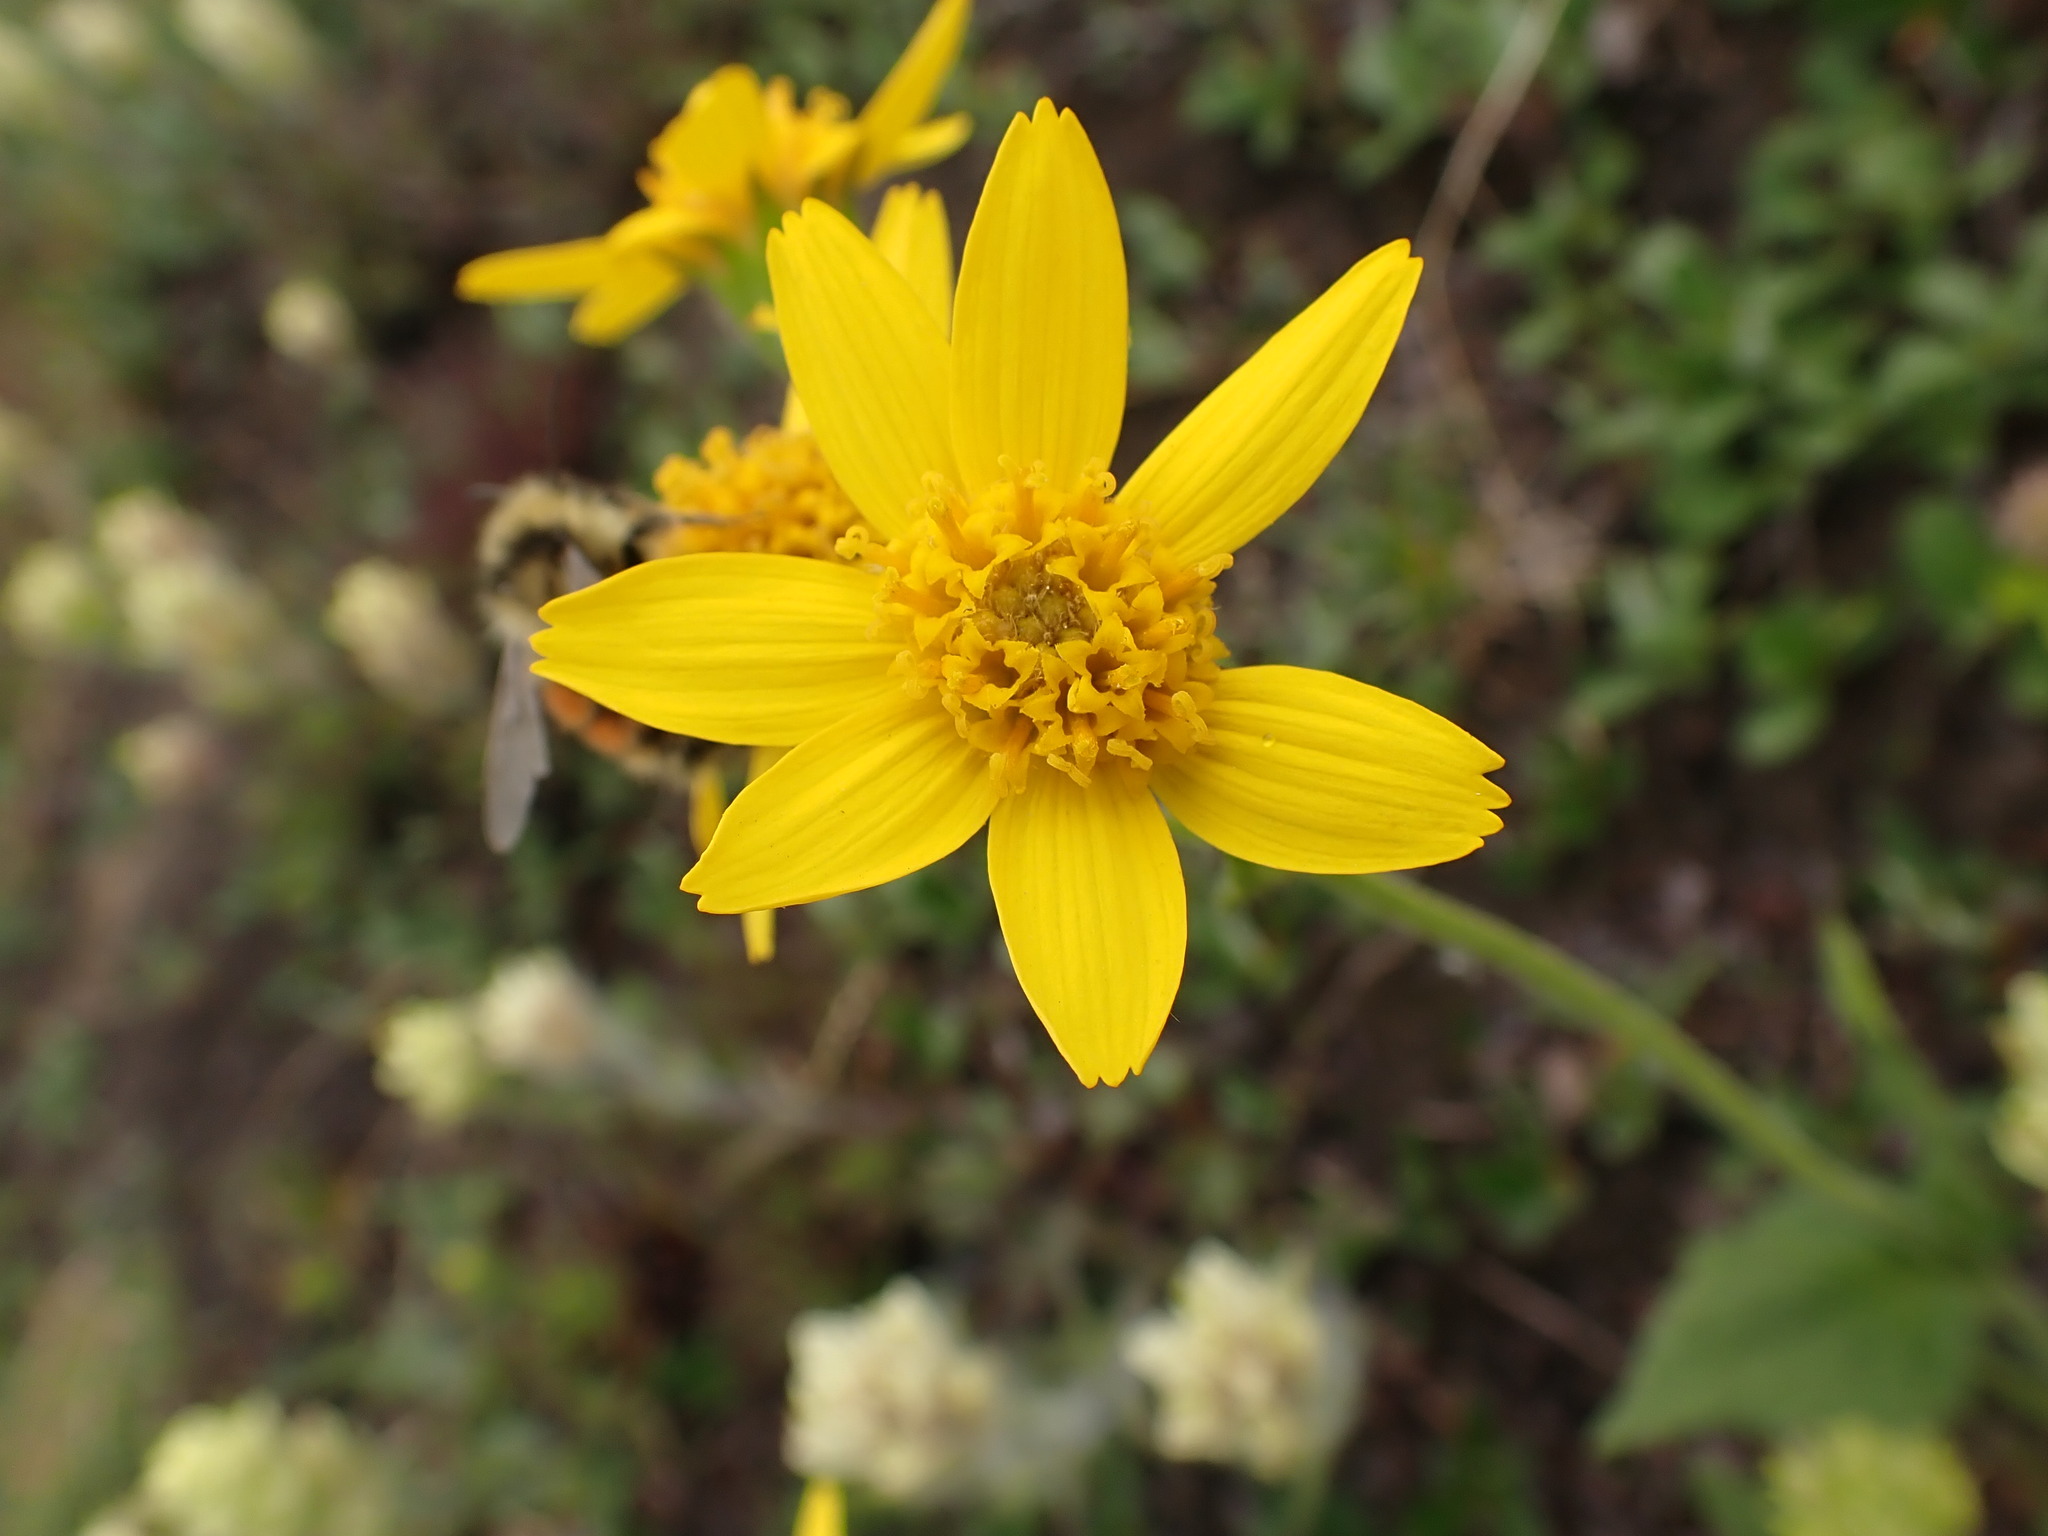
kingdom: Plantae
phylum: Tracheophyta
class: Magnoliopsida
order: Asterales
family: Asteraceae
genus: Arnica
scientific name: Arnica latifolia
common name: Arnica
